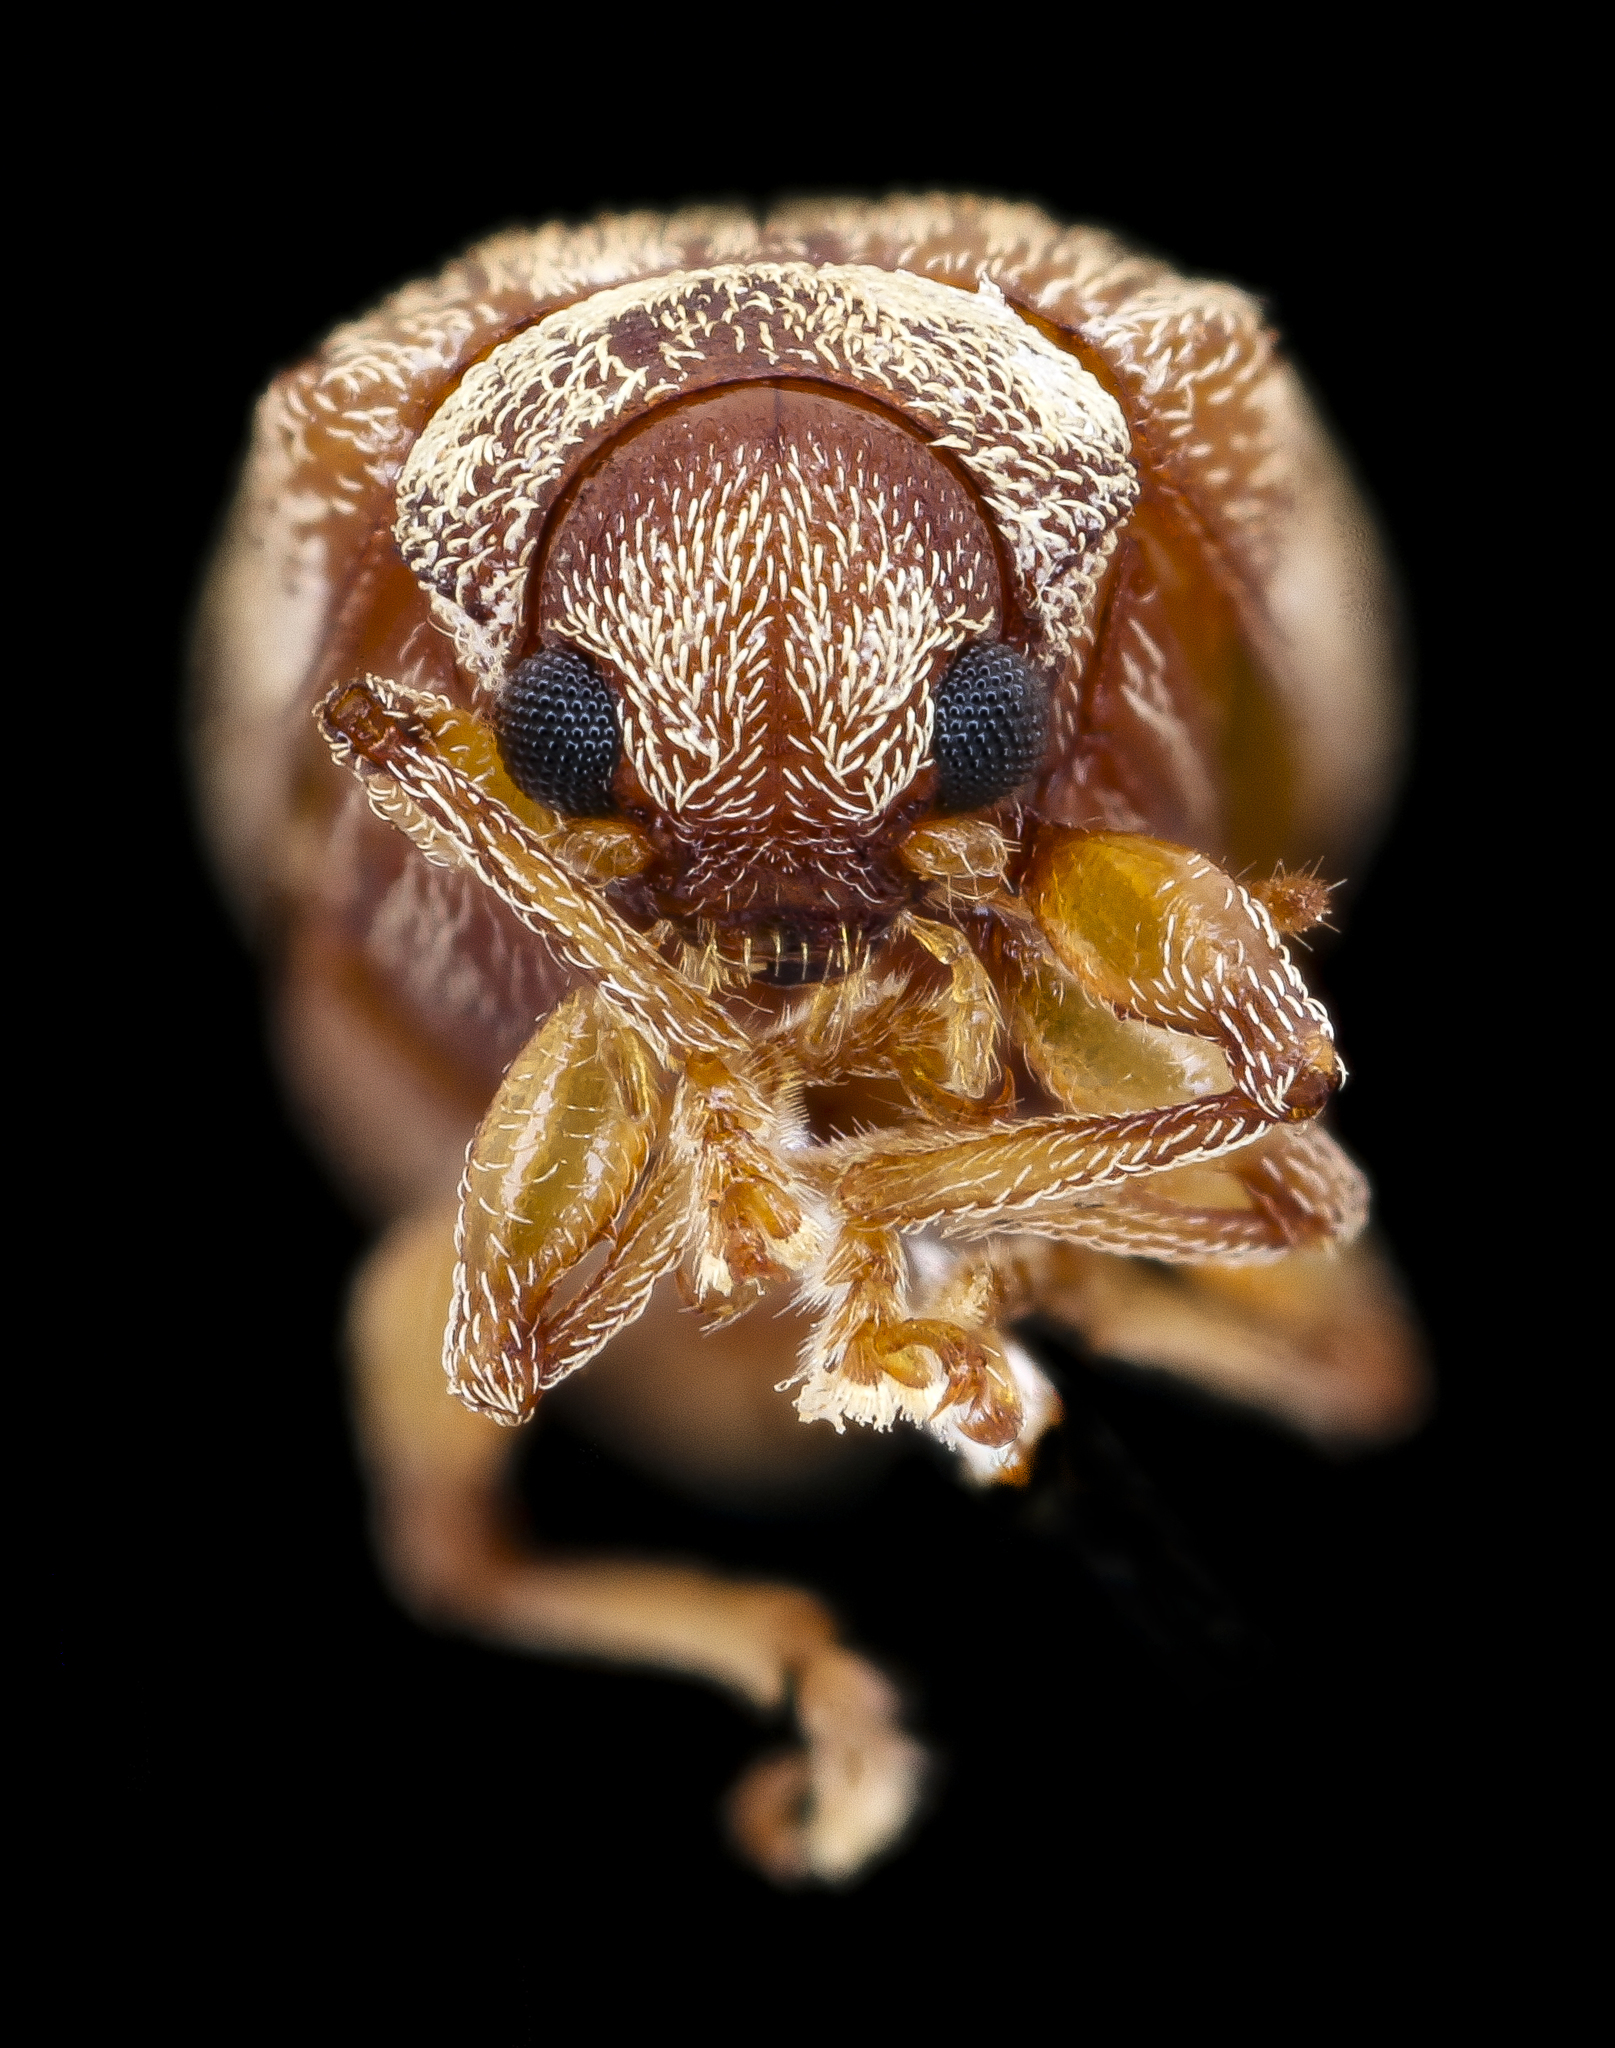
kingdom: Animalia
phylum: Arthropoda
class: Insecta
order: Coleoptera
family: Chrysomelidae
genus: Demotina
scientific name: Demotina modesta
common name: Leaf beetle
